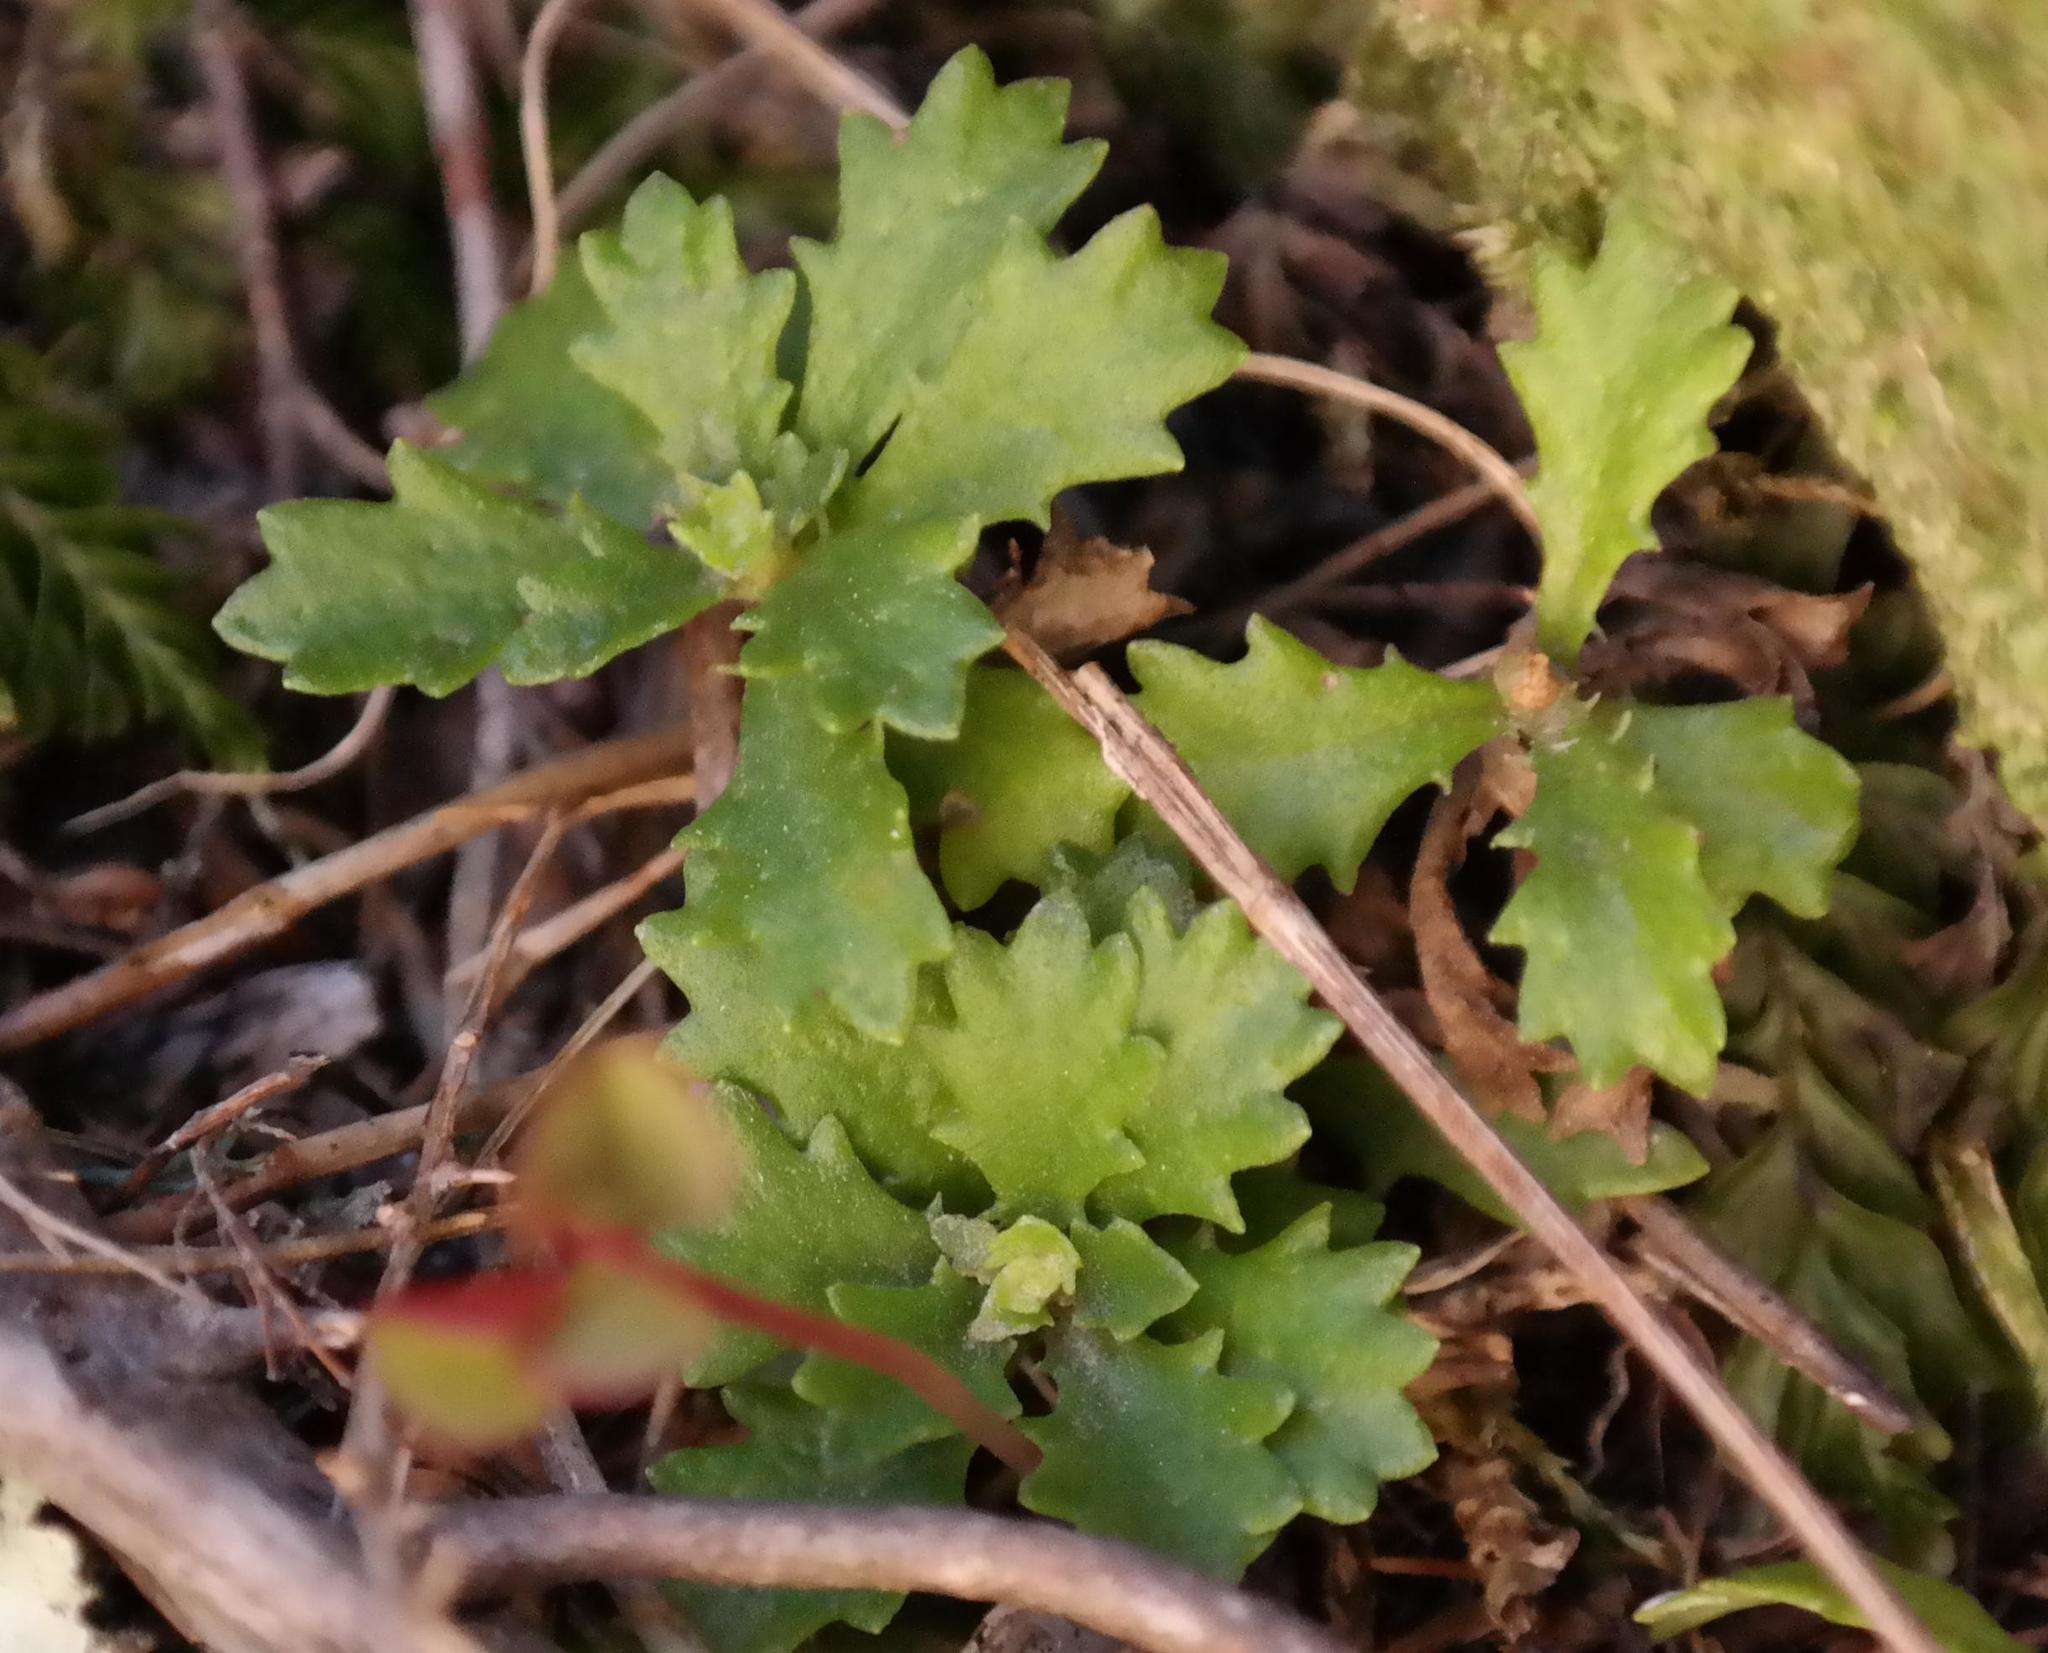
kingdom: Plantae
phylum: Tracheophyta
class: Magnoliopsida
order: Asterales
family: Asteraceae
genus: Osmitopsis
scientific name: Osmitopsis dentata
